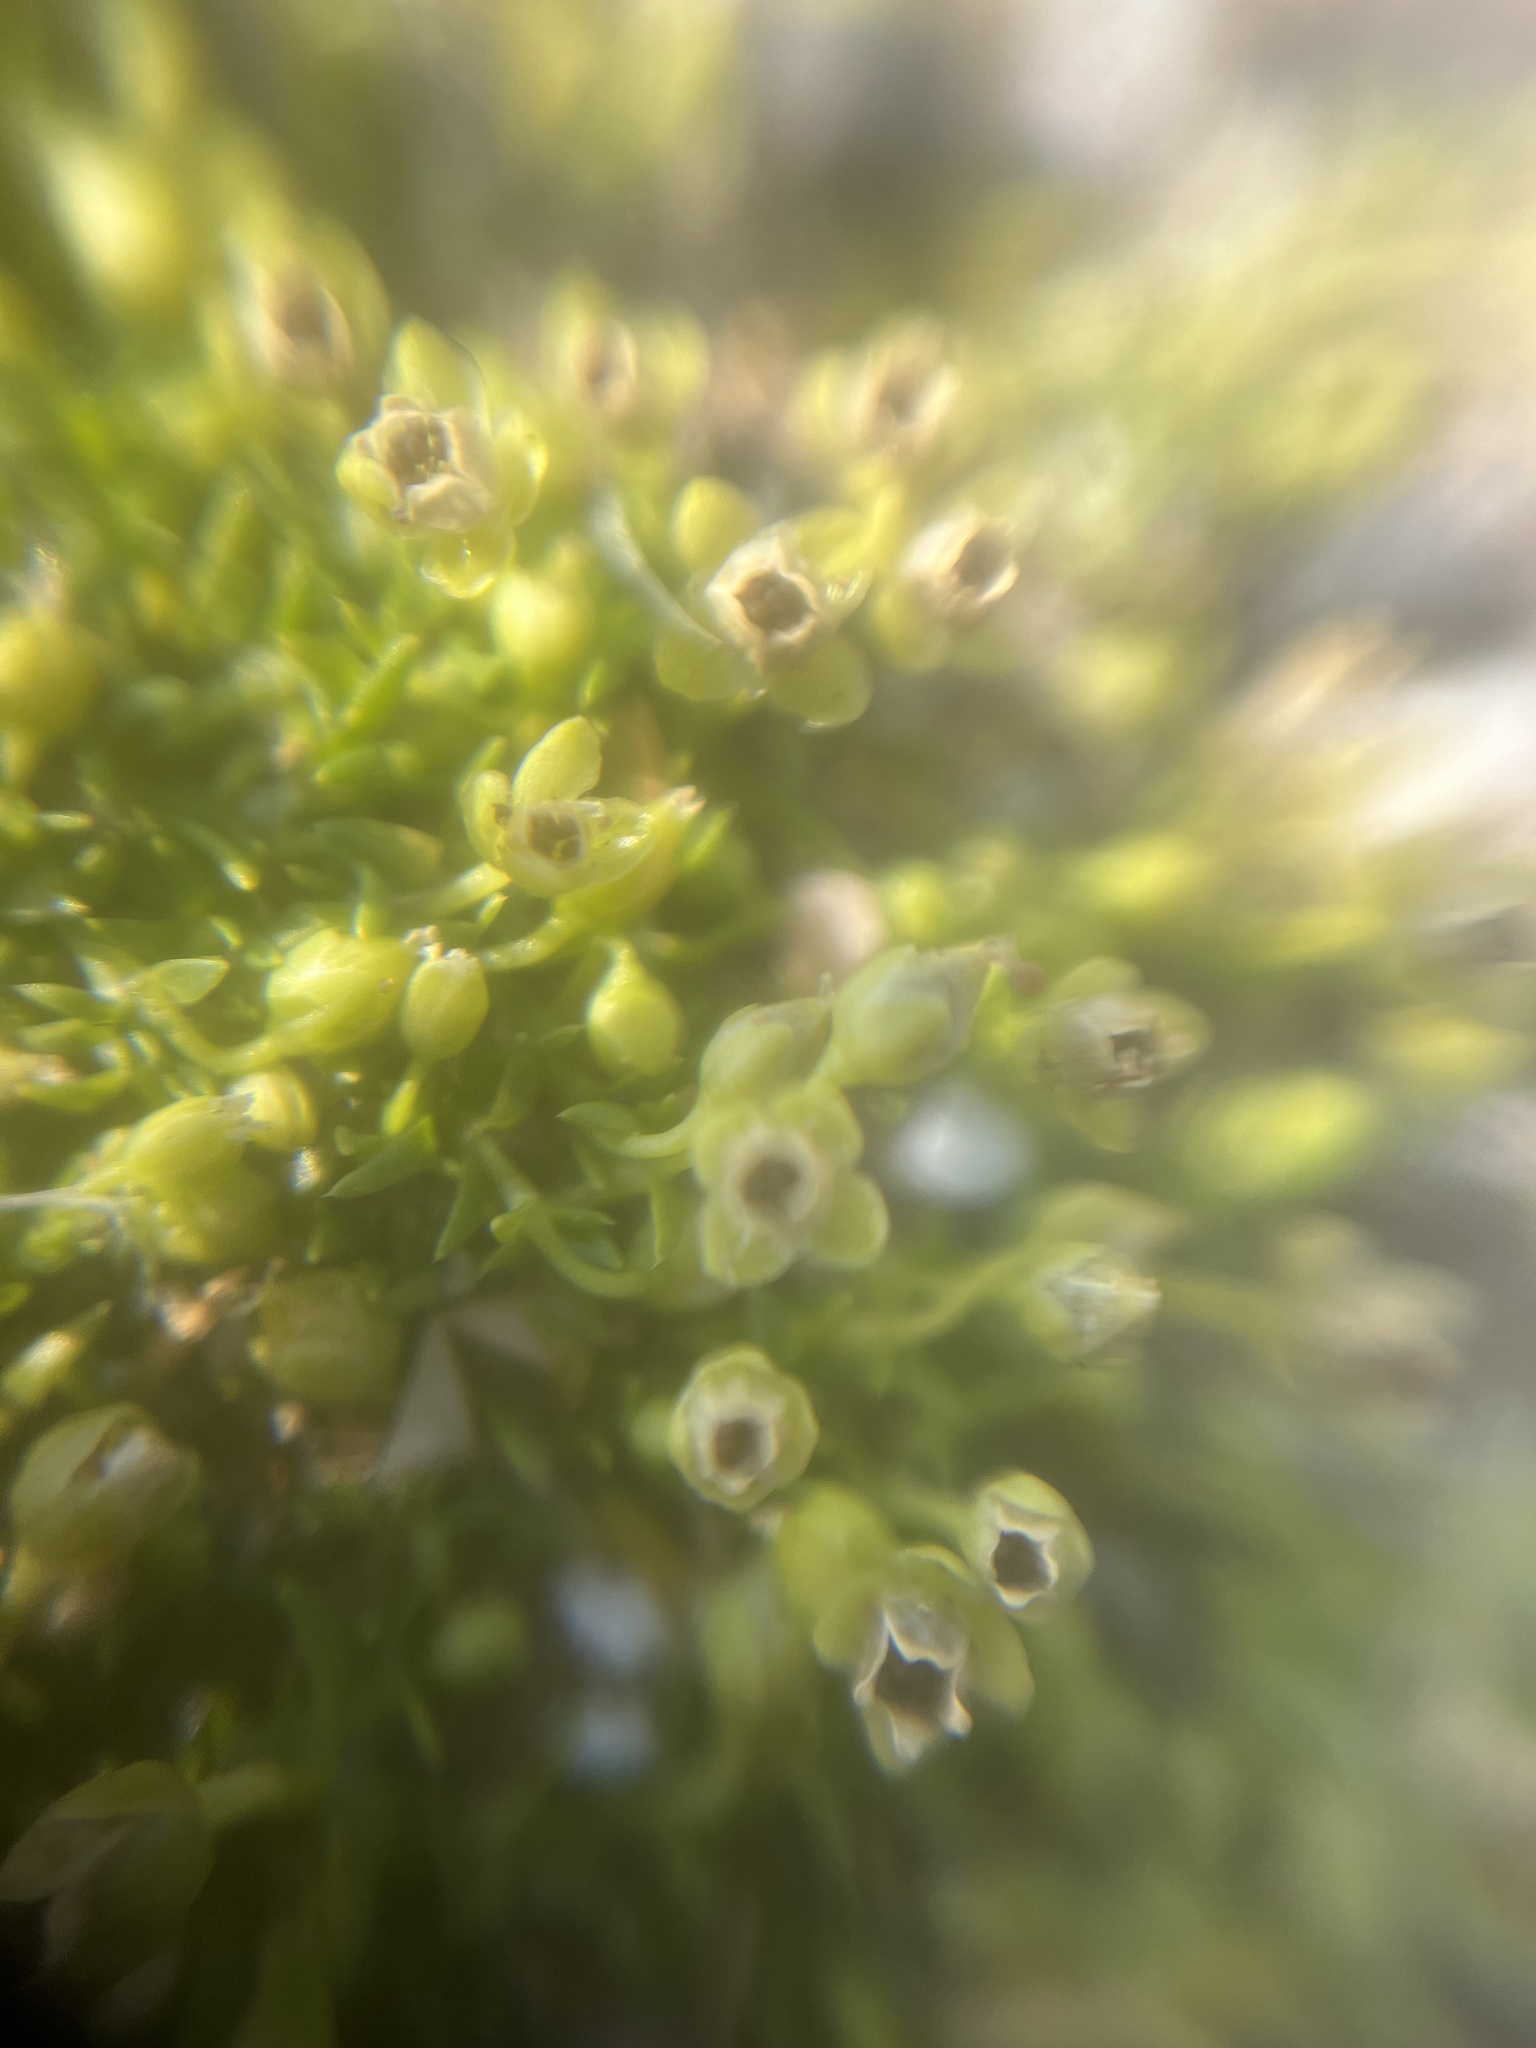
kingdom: Plantae
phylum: Tracheophyta
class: Magnoliopsida
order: Caryophyllales
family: Caryophyllaceae
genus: Sagina
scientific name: Sagina procumbens
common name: Procumbent pearlwort
